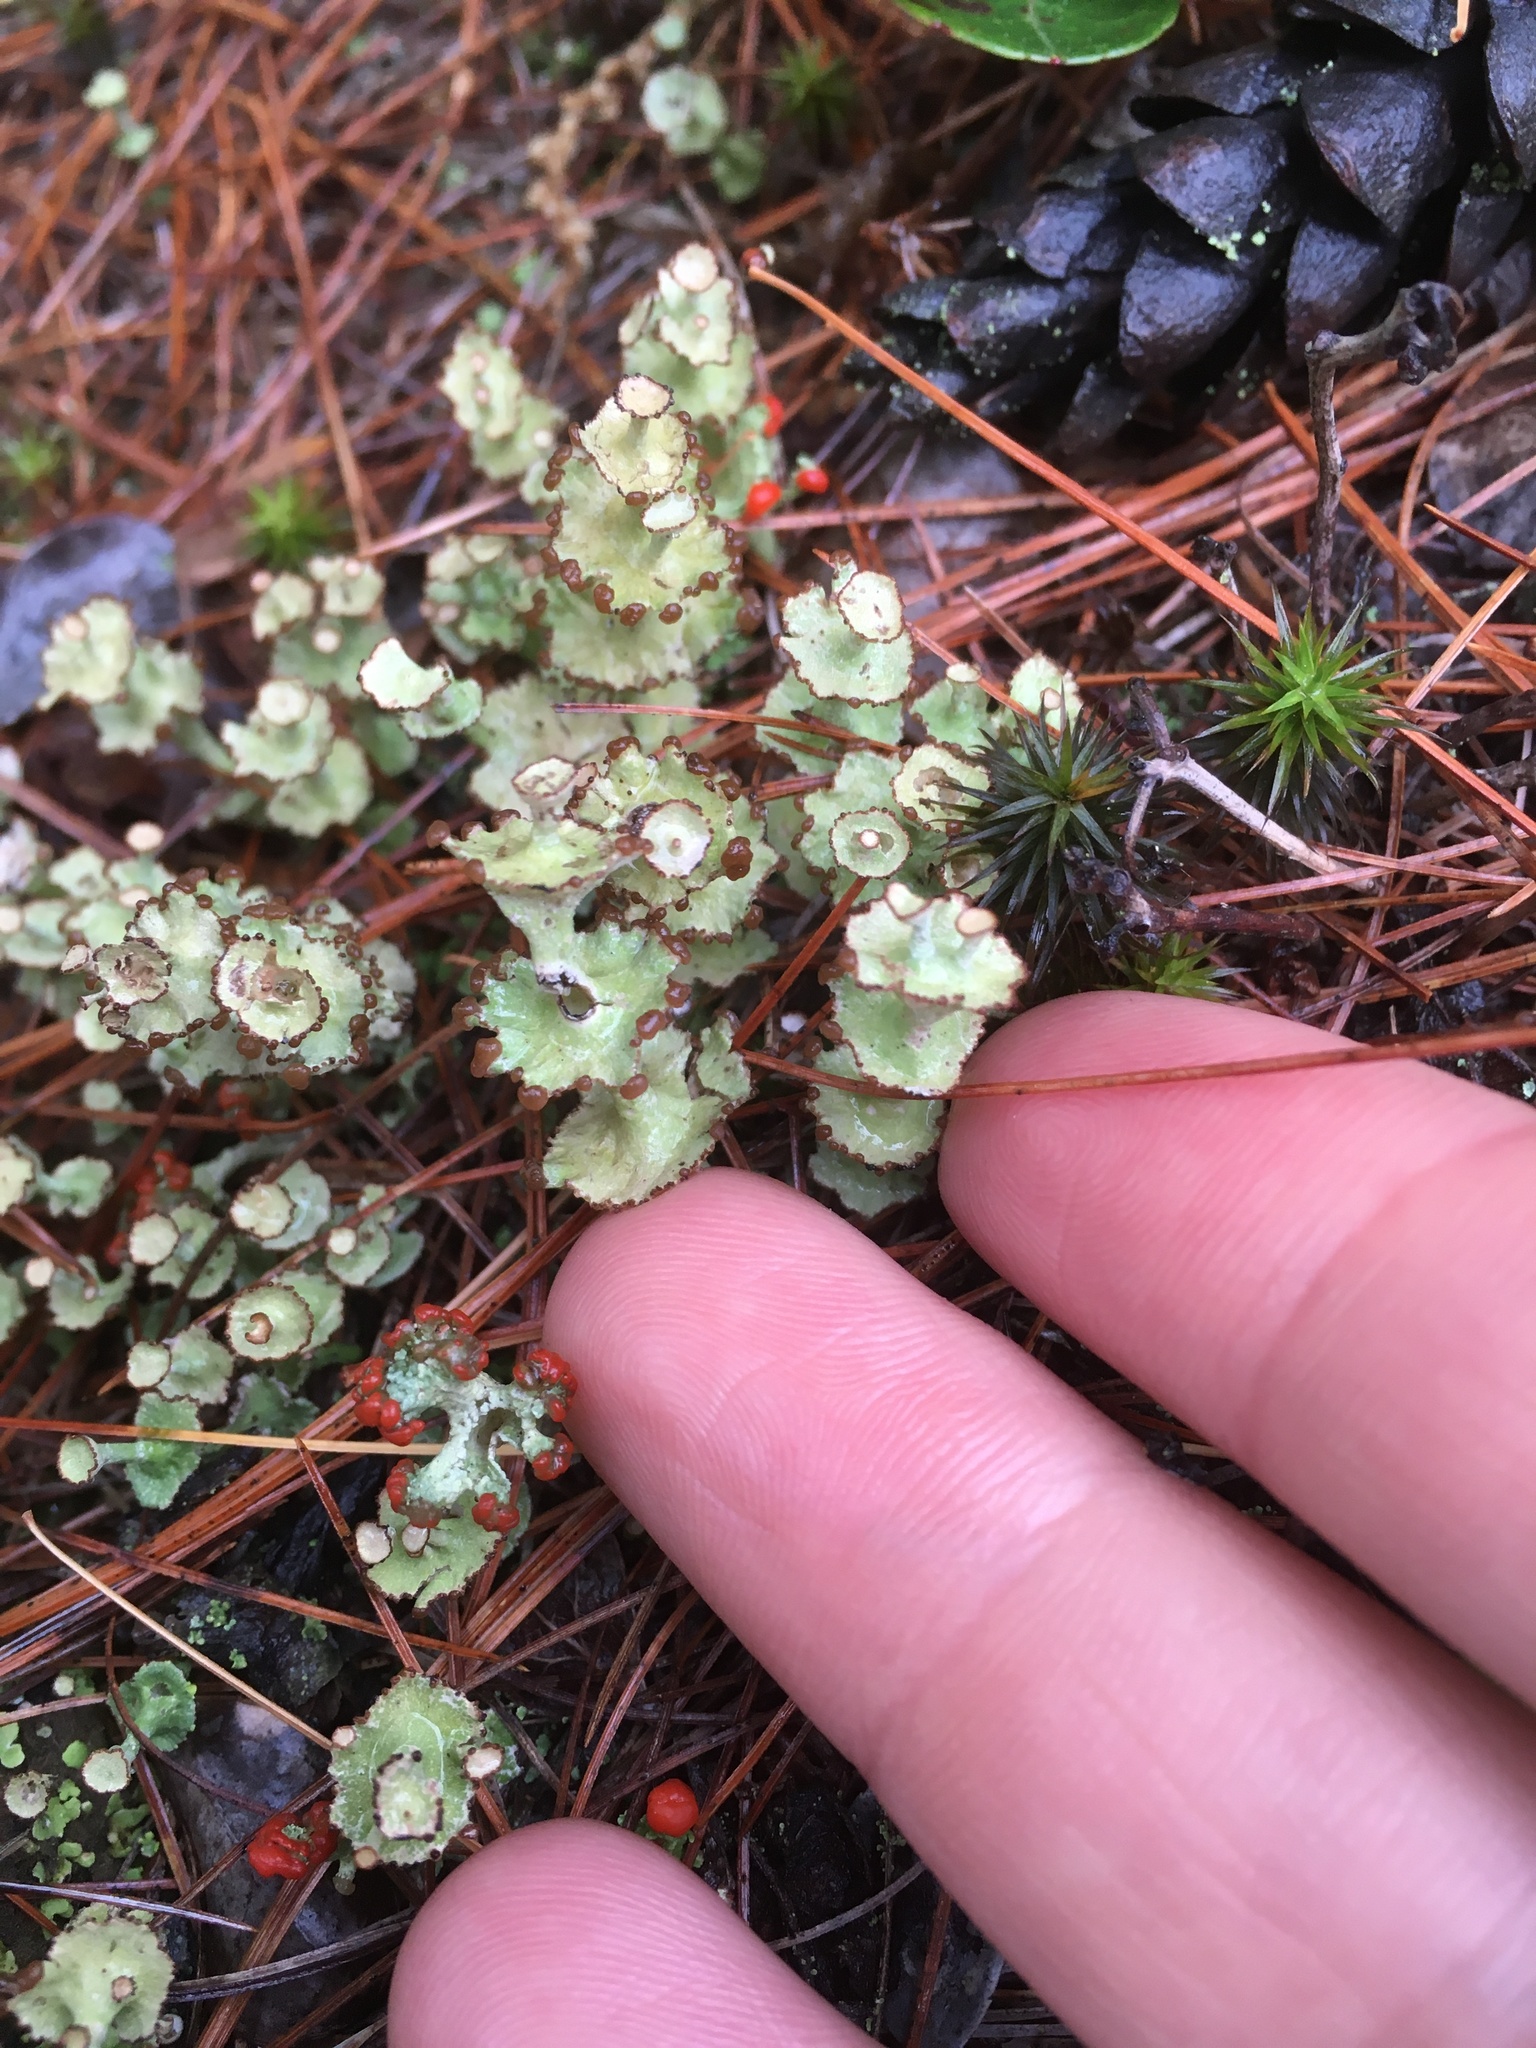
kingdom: Fungi
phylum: Ascomycota
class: Lecanoromycetes
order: Lecanorales
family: Cladoniaceae
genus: Cladonia
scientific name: Cladonia cervicornis
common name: Browned pixie-cup lichen
